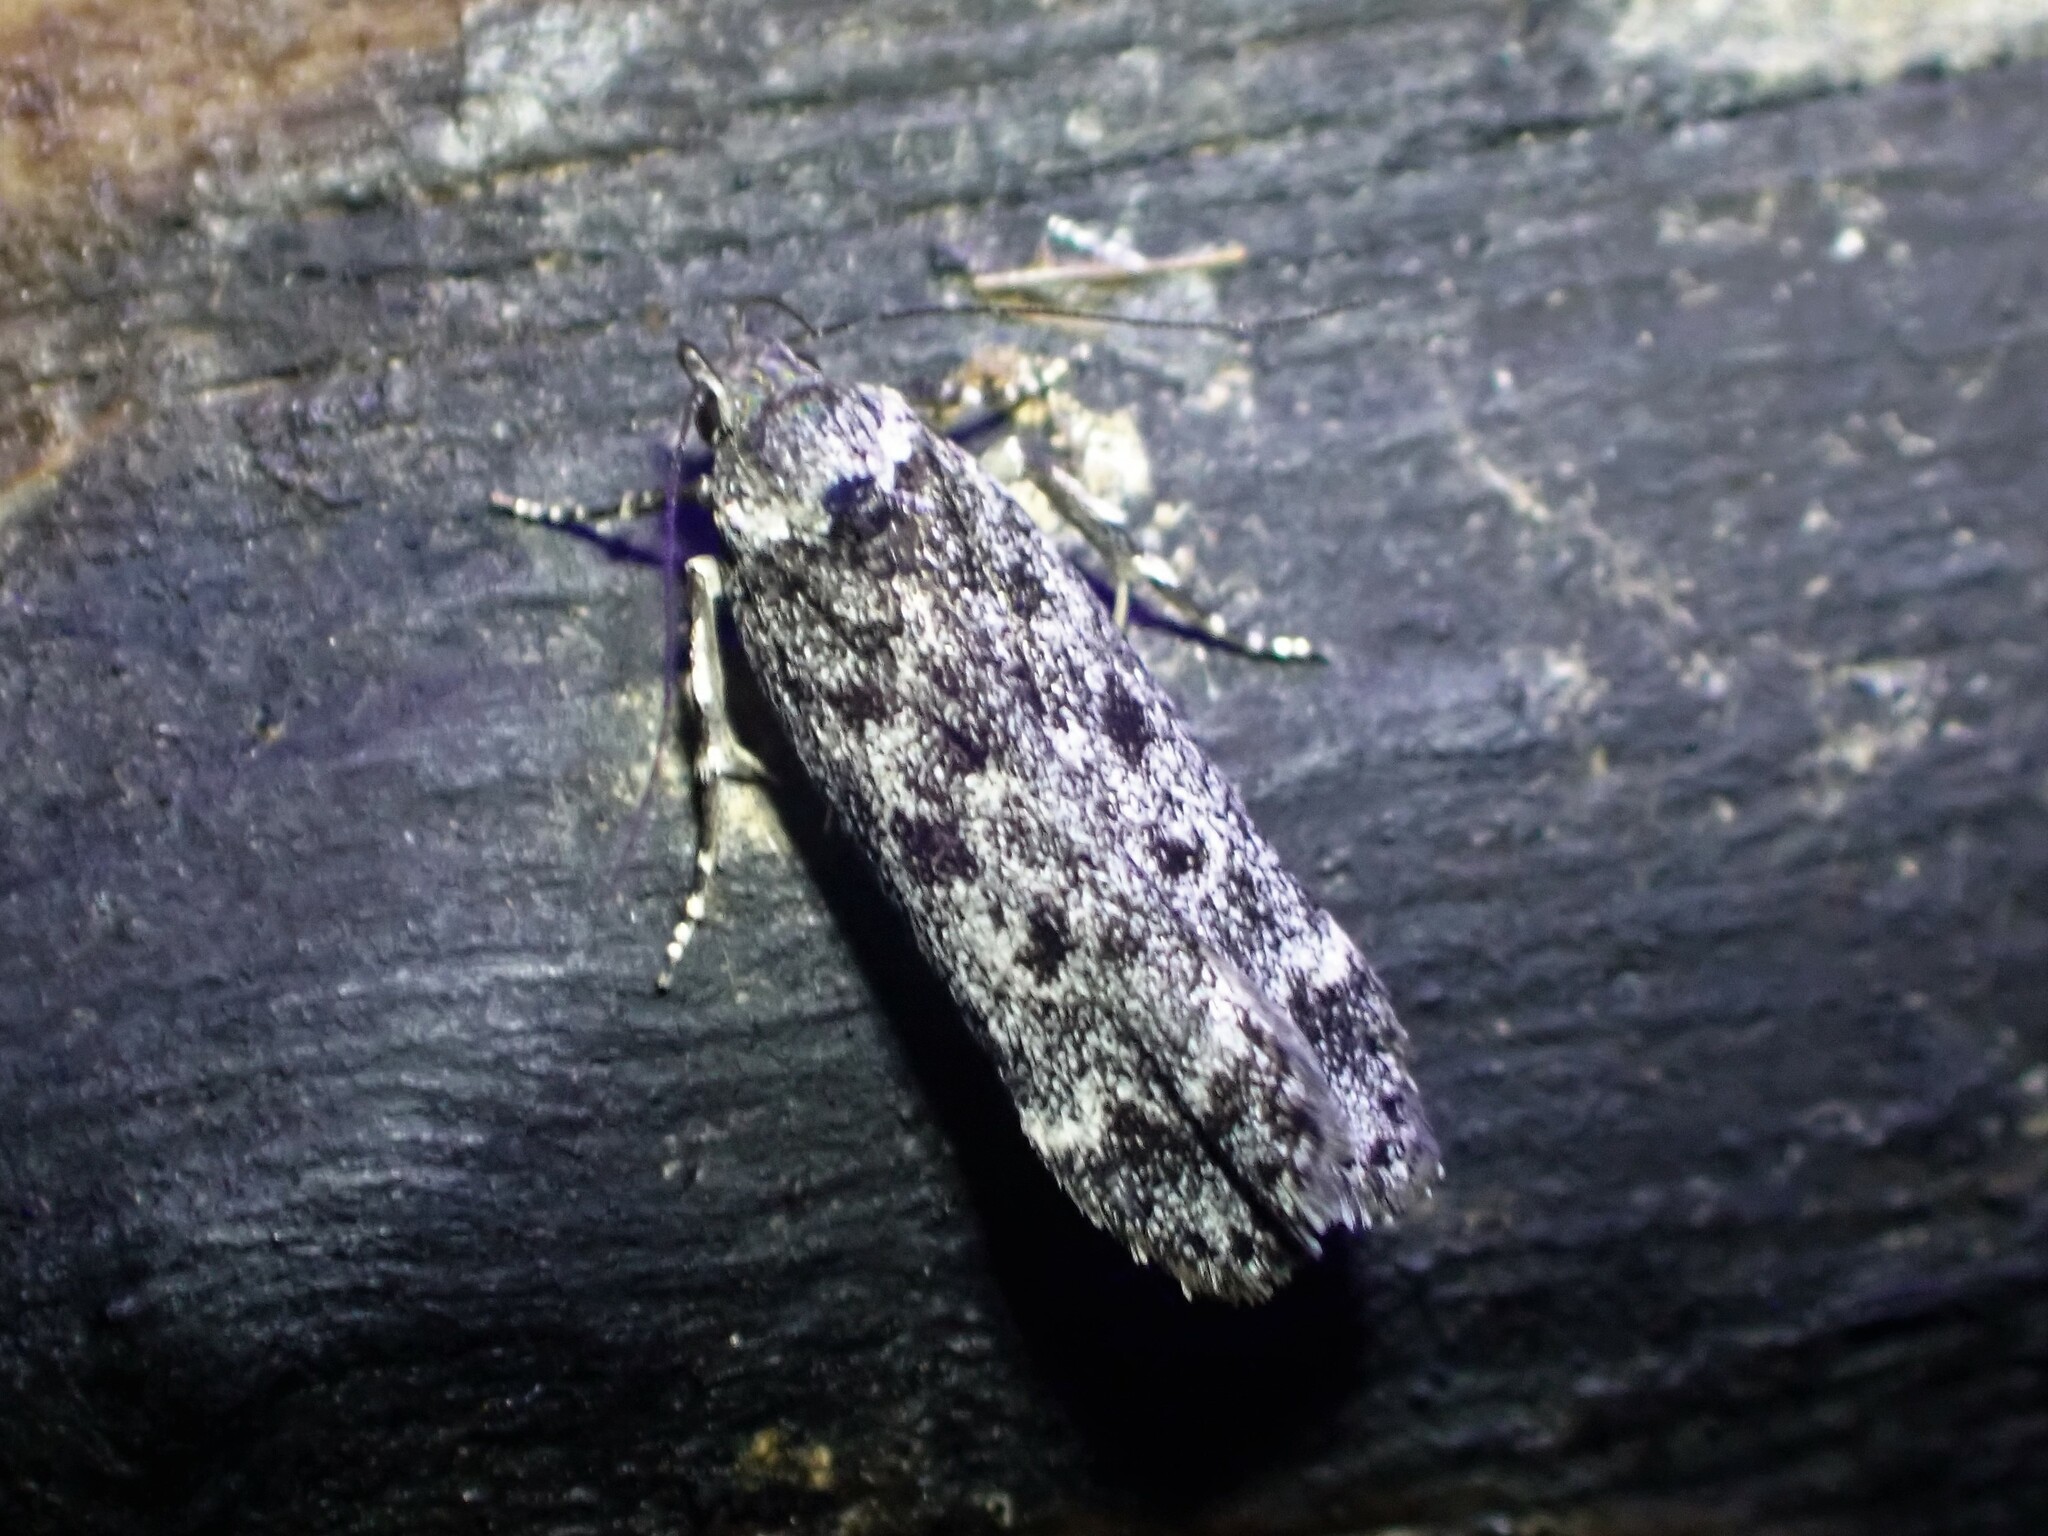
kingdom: Animalia
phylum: Arthropoda
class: Insecta
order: Lepidoptera
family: Gelechiidae
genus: Anacampsis
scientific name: Anacampsis niveopulvella
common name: Pale-headed aspen leafroller moth
